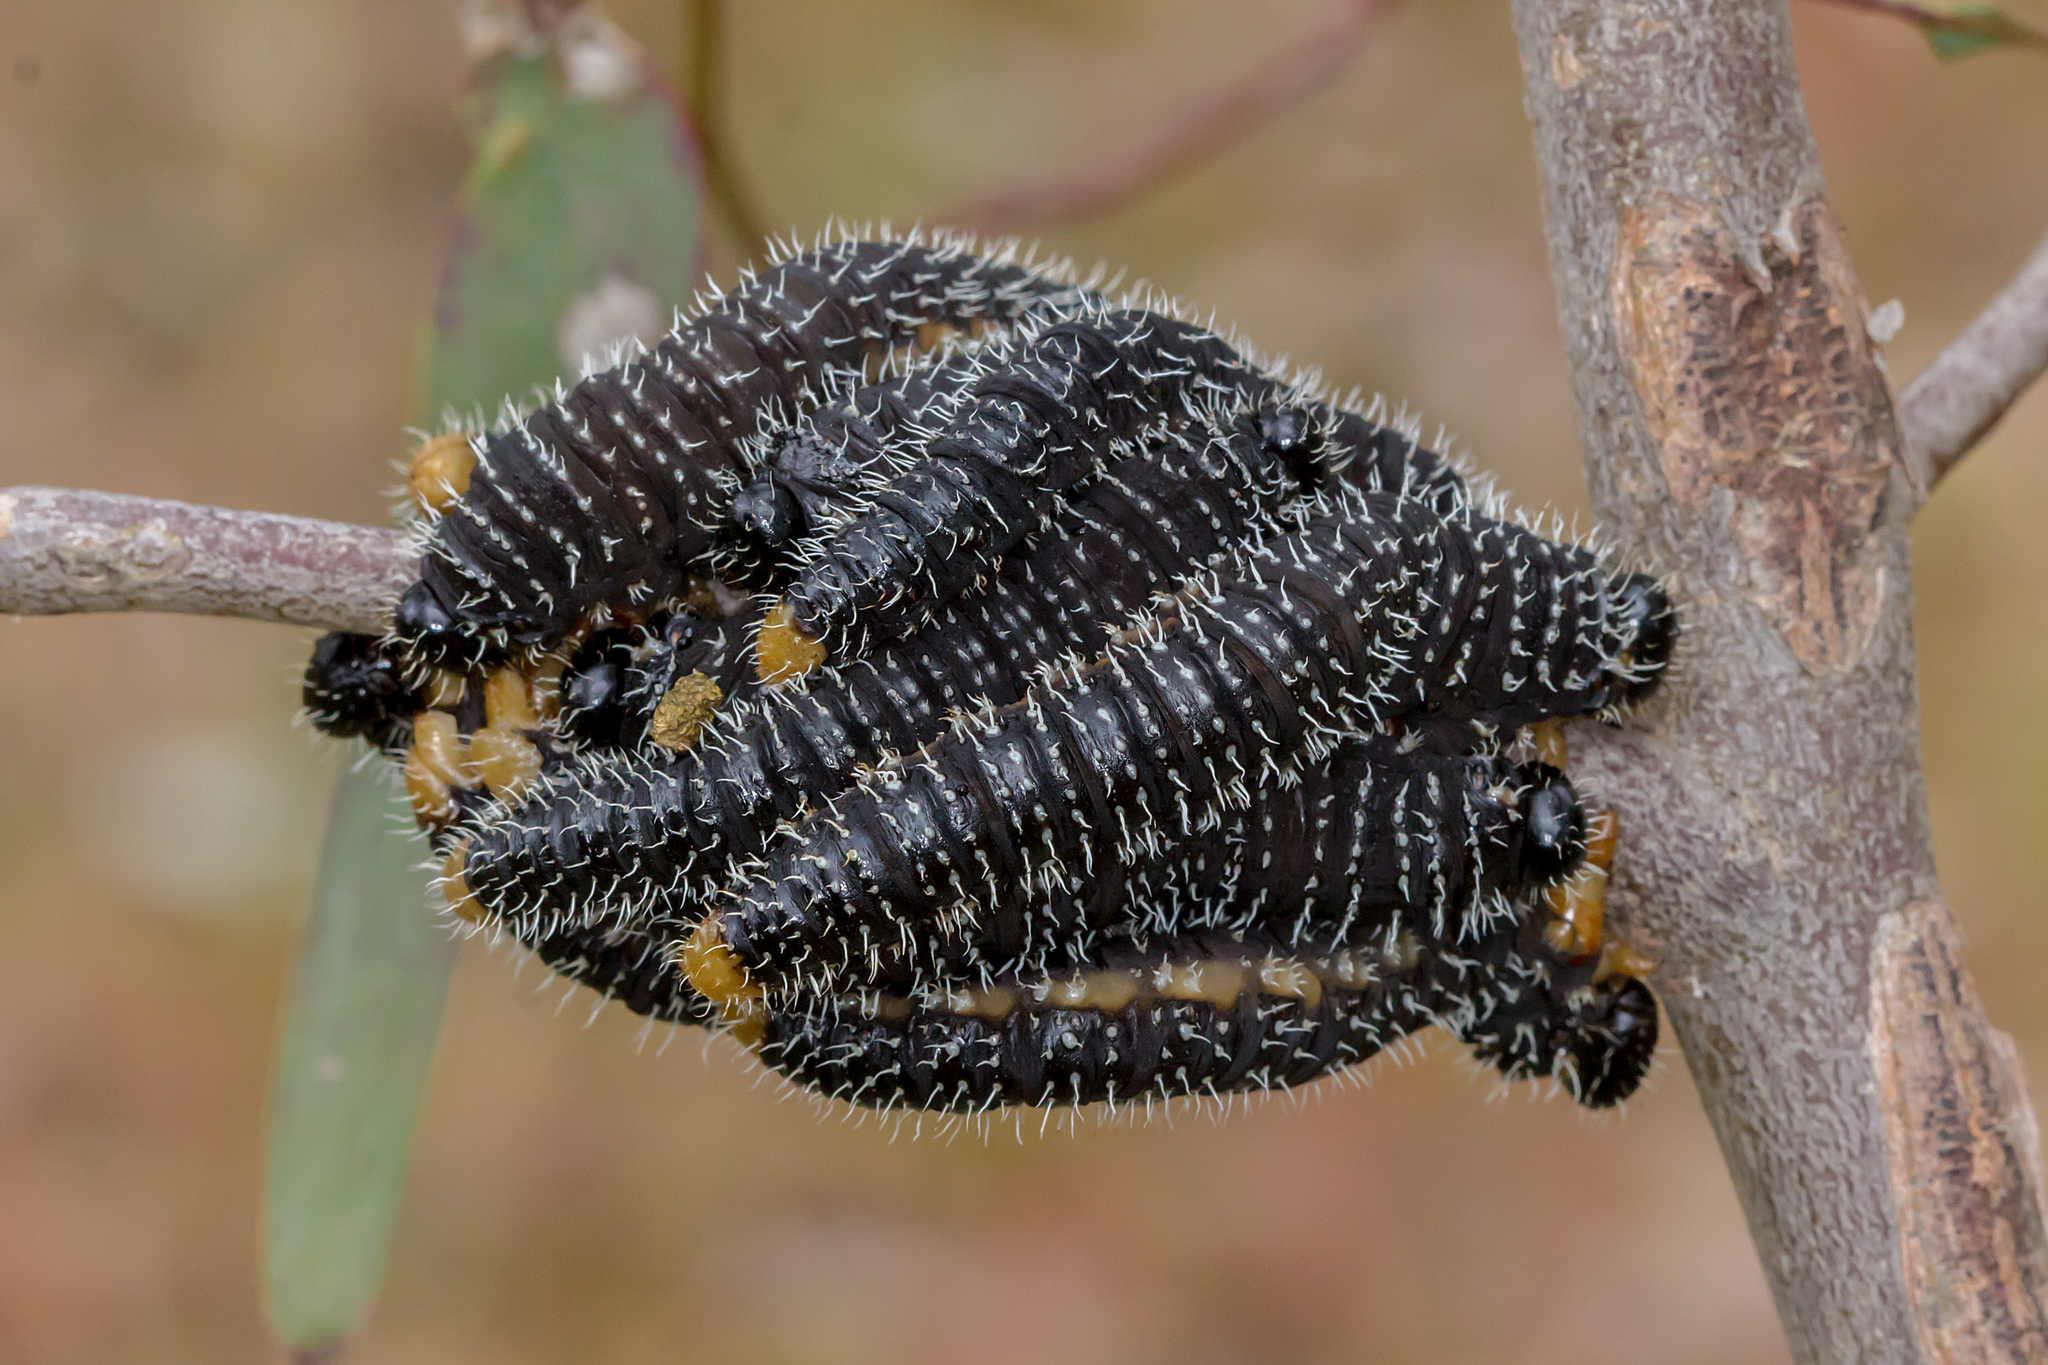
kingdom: Animalia
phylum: Arthropoda
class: Insecta
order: Hymenoptera
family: Pergidae
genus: Perga
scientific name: Perga affinis
